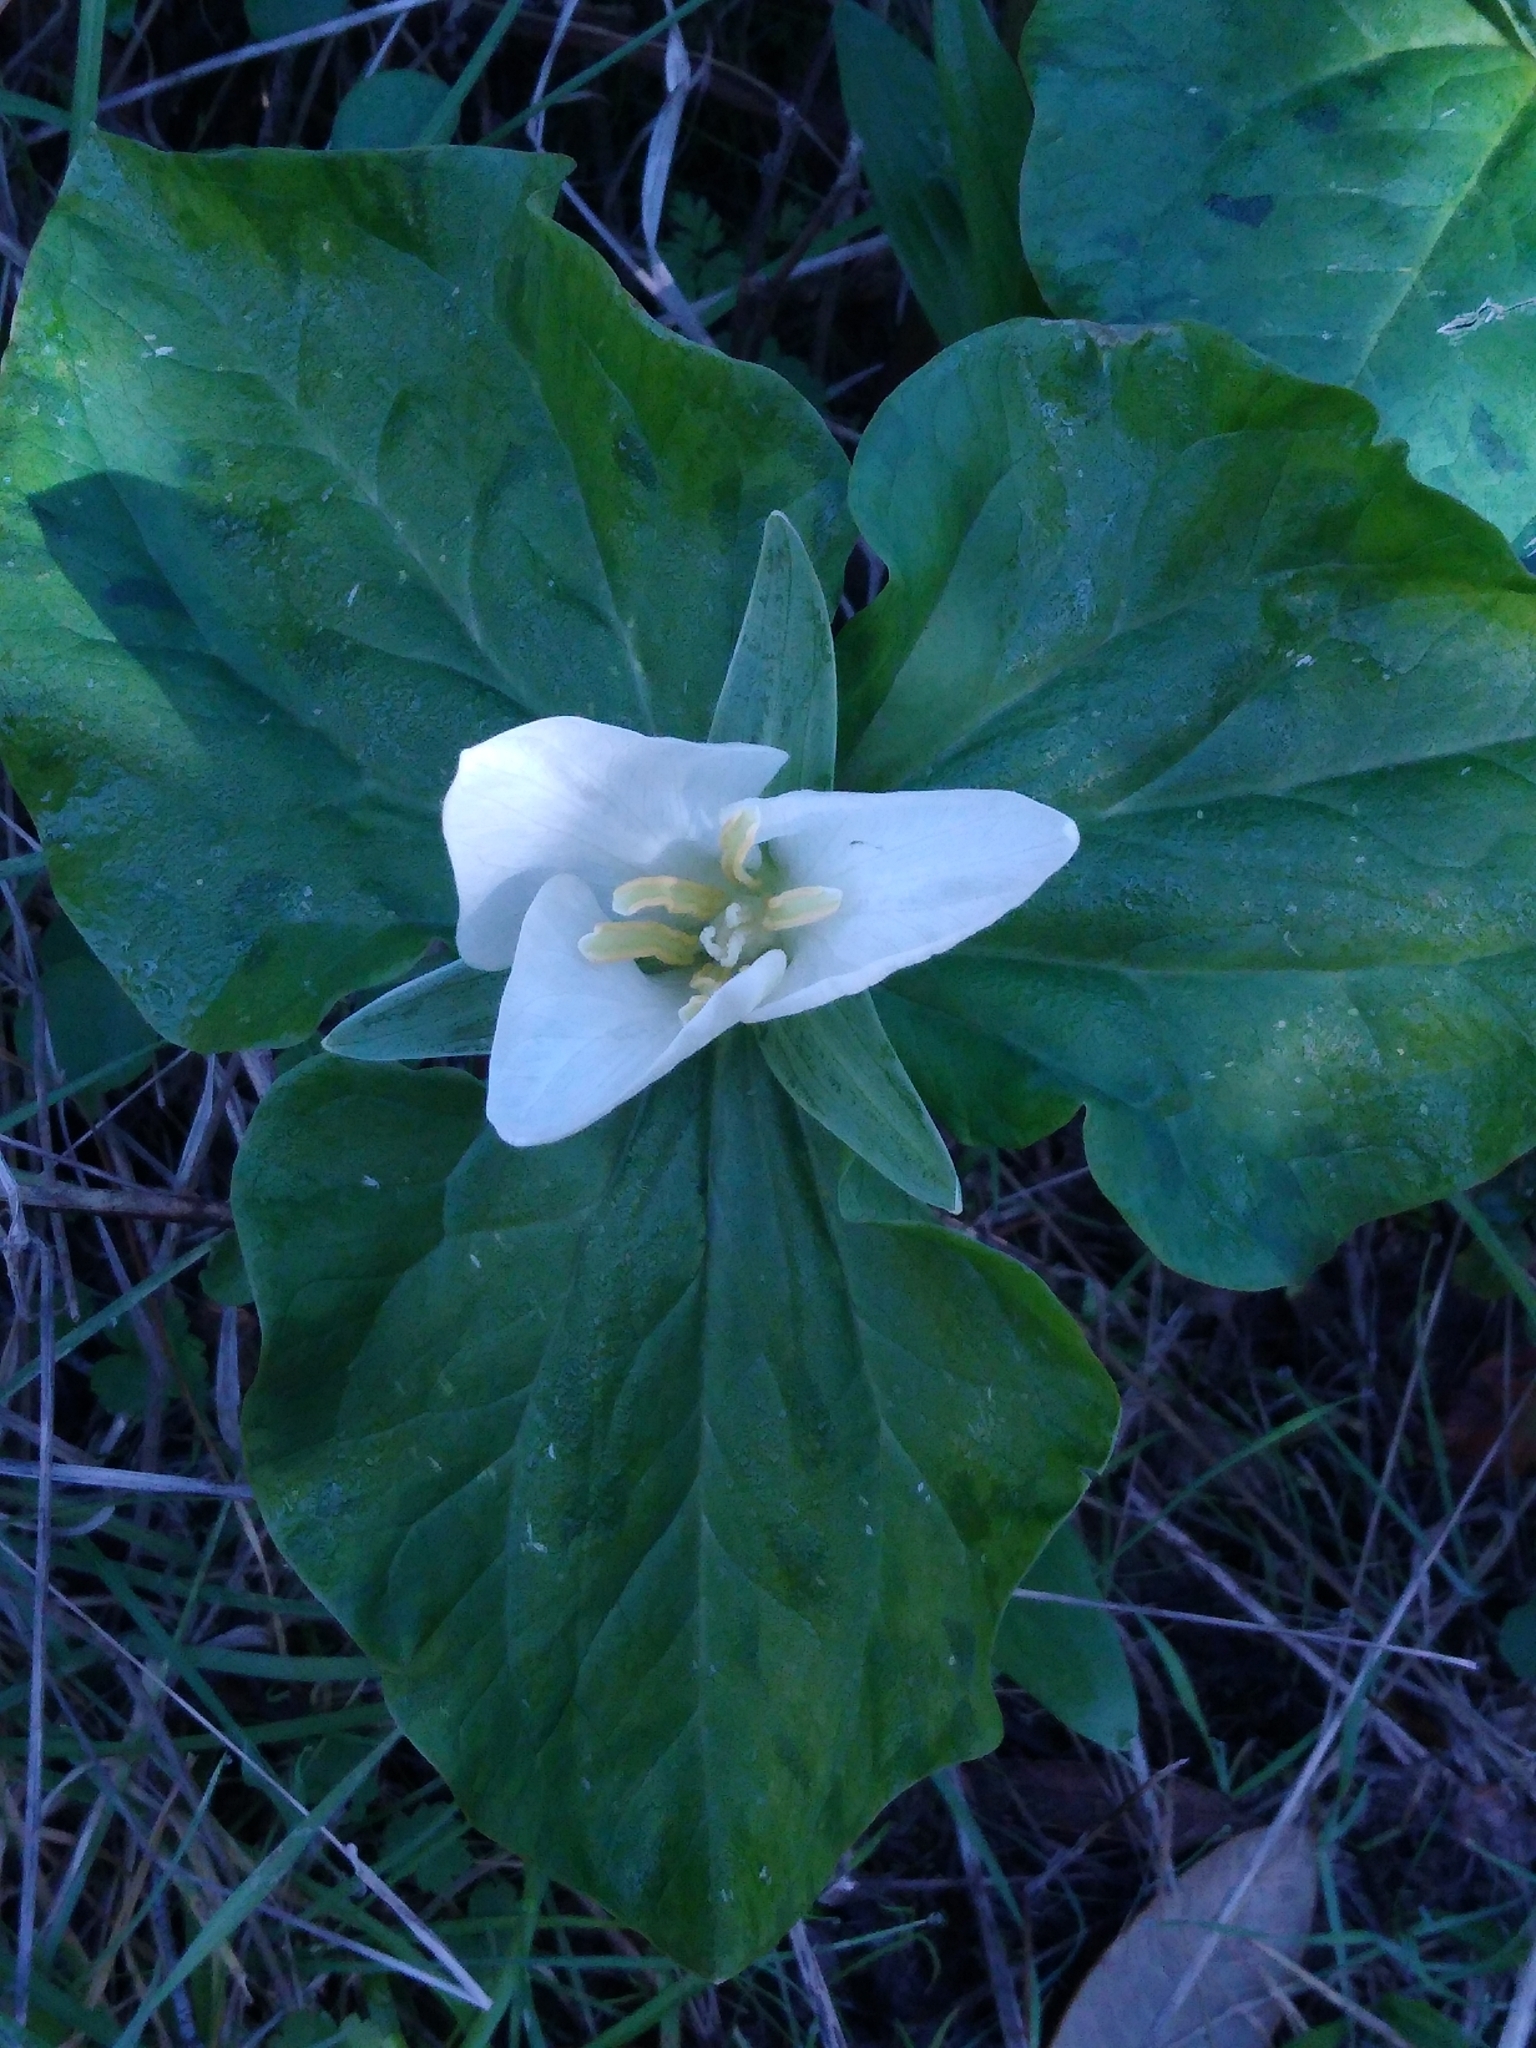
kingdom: Plantae
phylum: Tracheophyta
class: Liliopsida
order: Liliales
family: Melanthiaceae
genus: Trillium
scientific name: Trillium albidum
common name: Freeman's trillium
